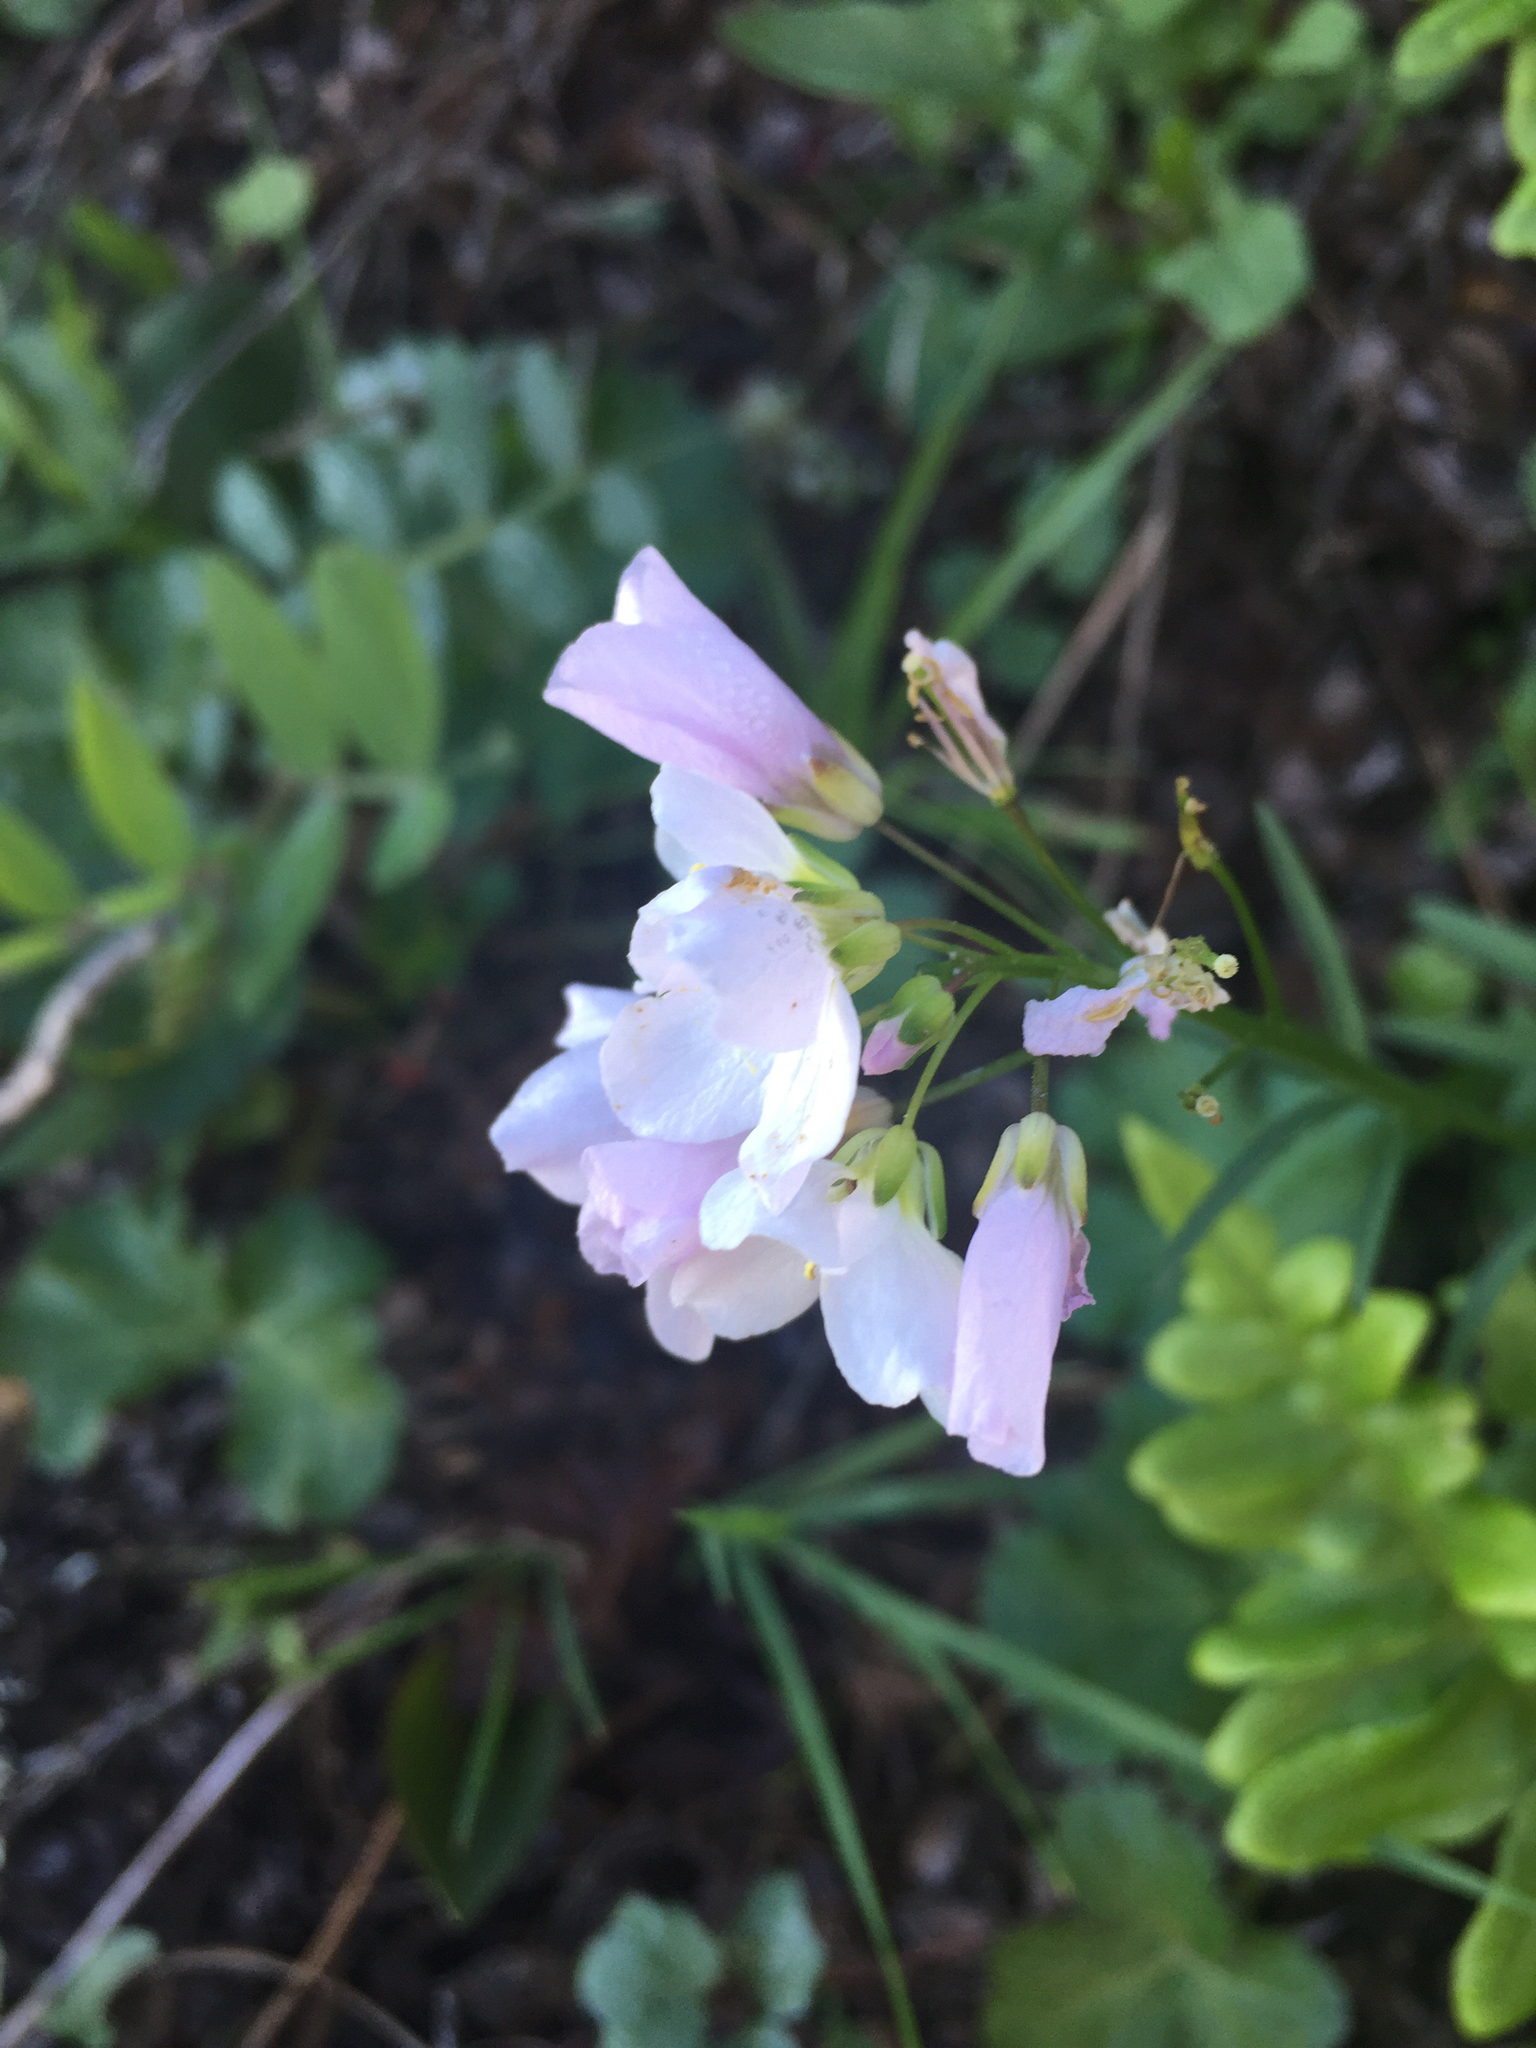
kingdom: Plantae
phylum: Tracheophyta
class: Magnoliopsida
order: Brassicales
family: Brassicaceae
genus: Cardamine
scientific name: Cardamine californica
